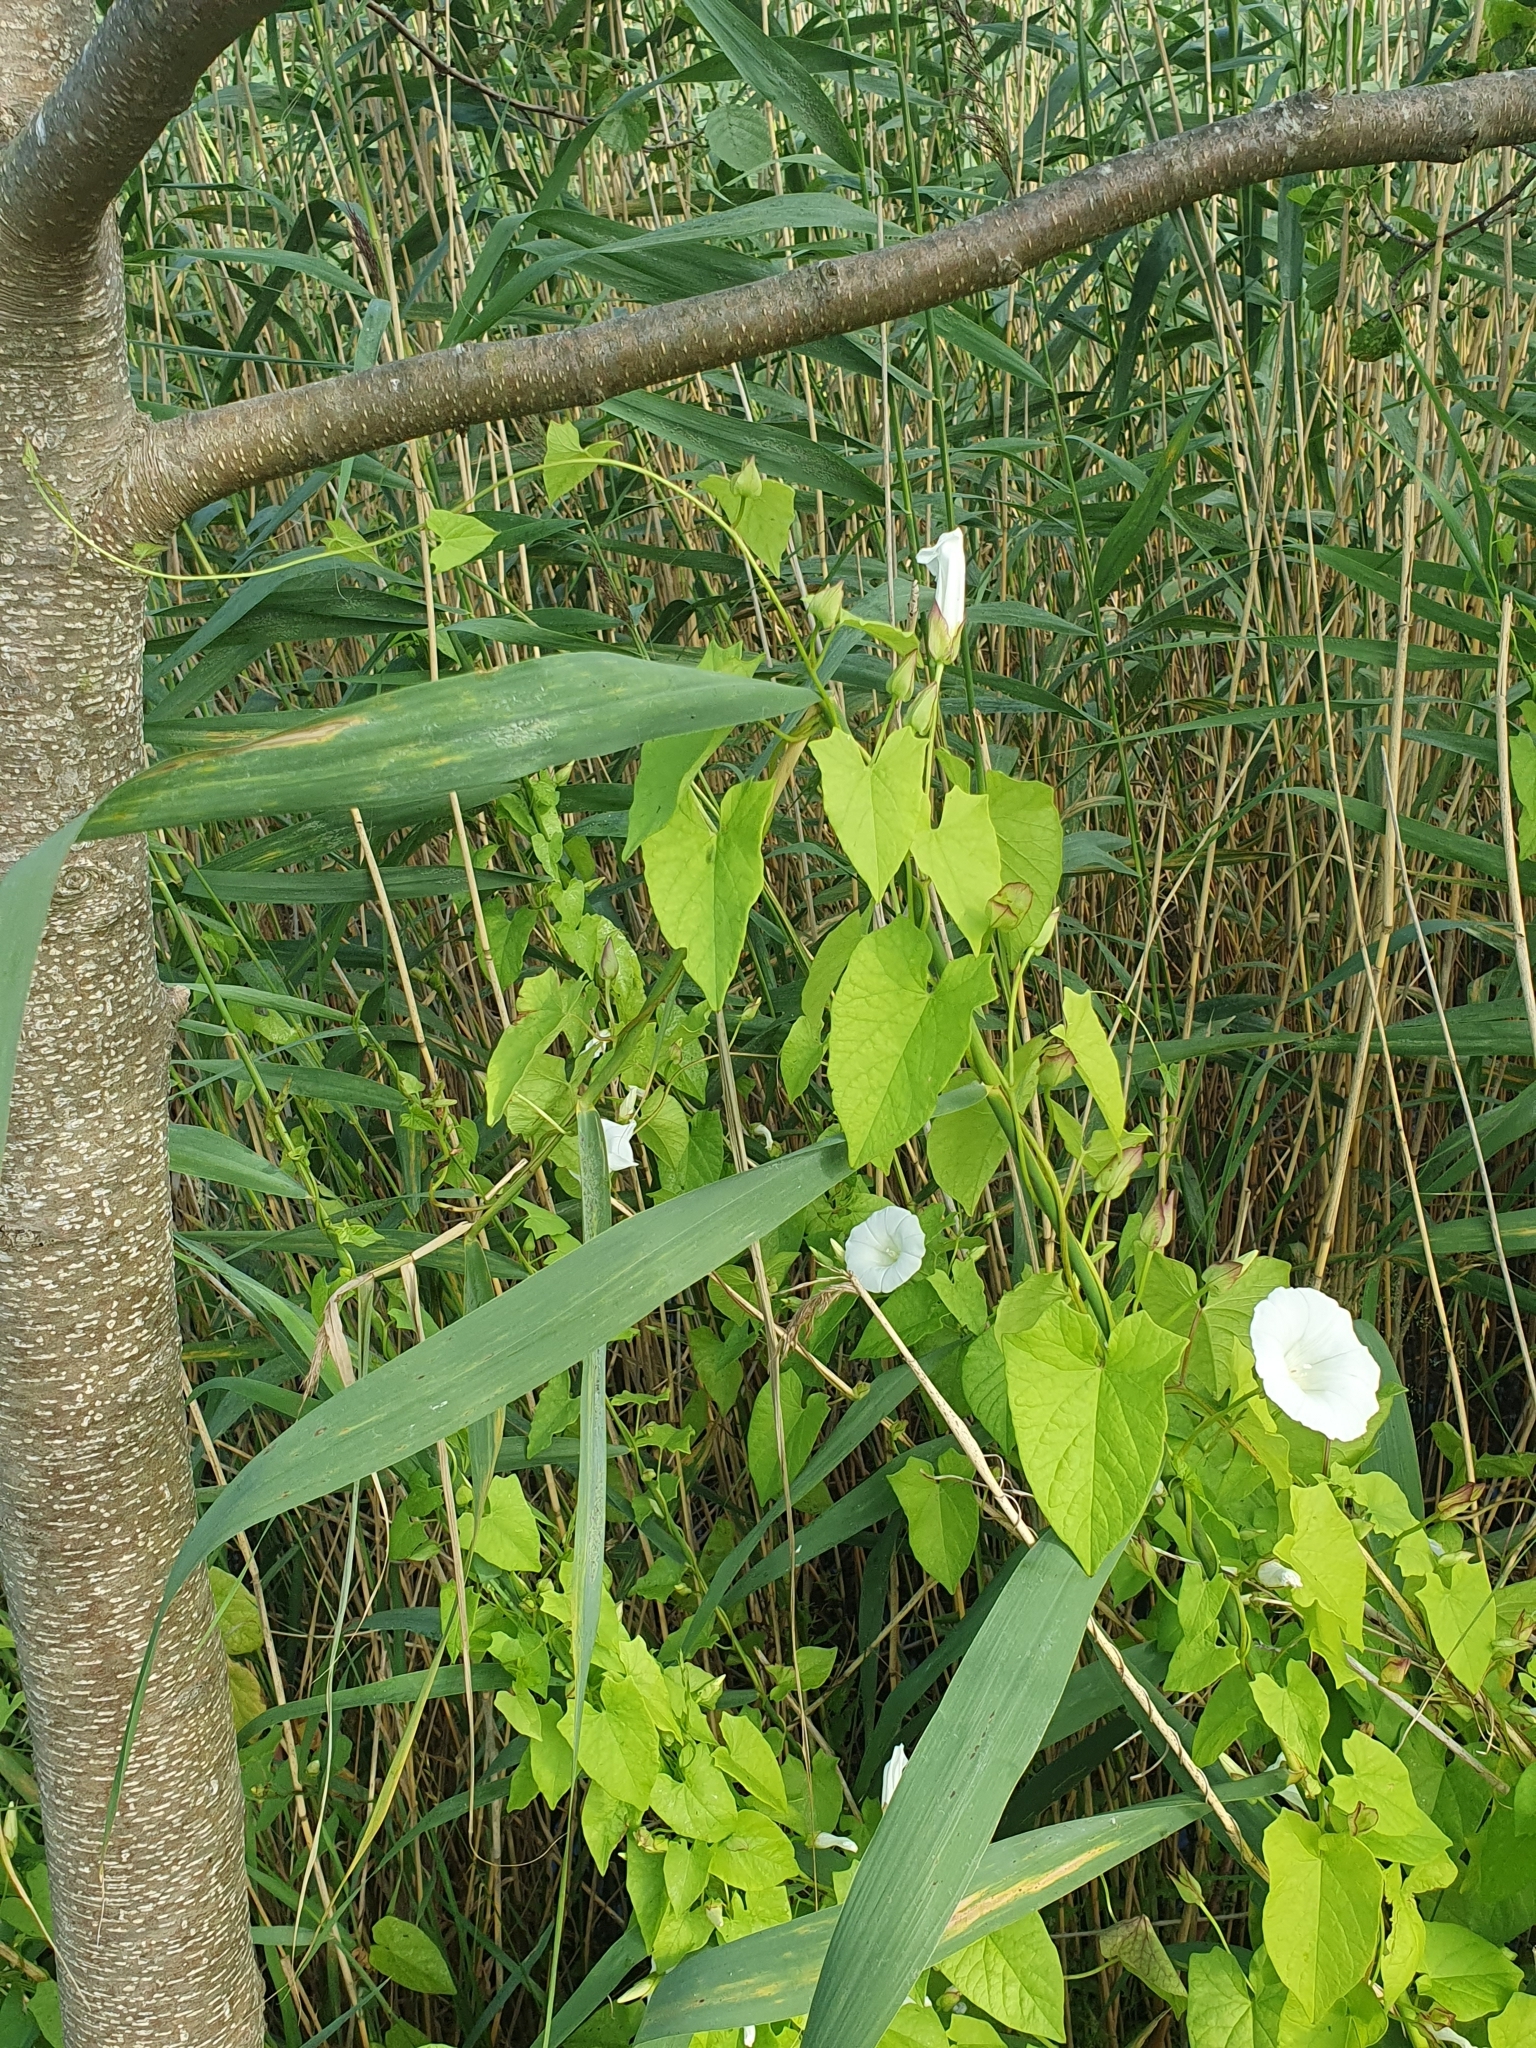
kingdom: Plantae
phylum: Tracheophyta
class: Magnoliopsida
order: Solanales
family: Convolvulaceae
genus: Calystegia
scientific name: Calystegia sepium
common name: Hedge bindweed
